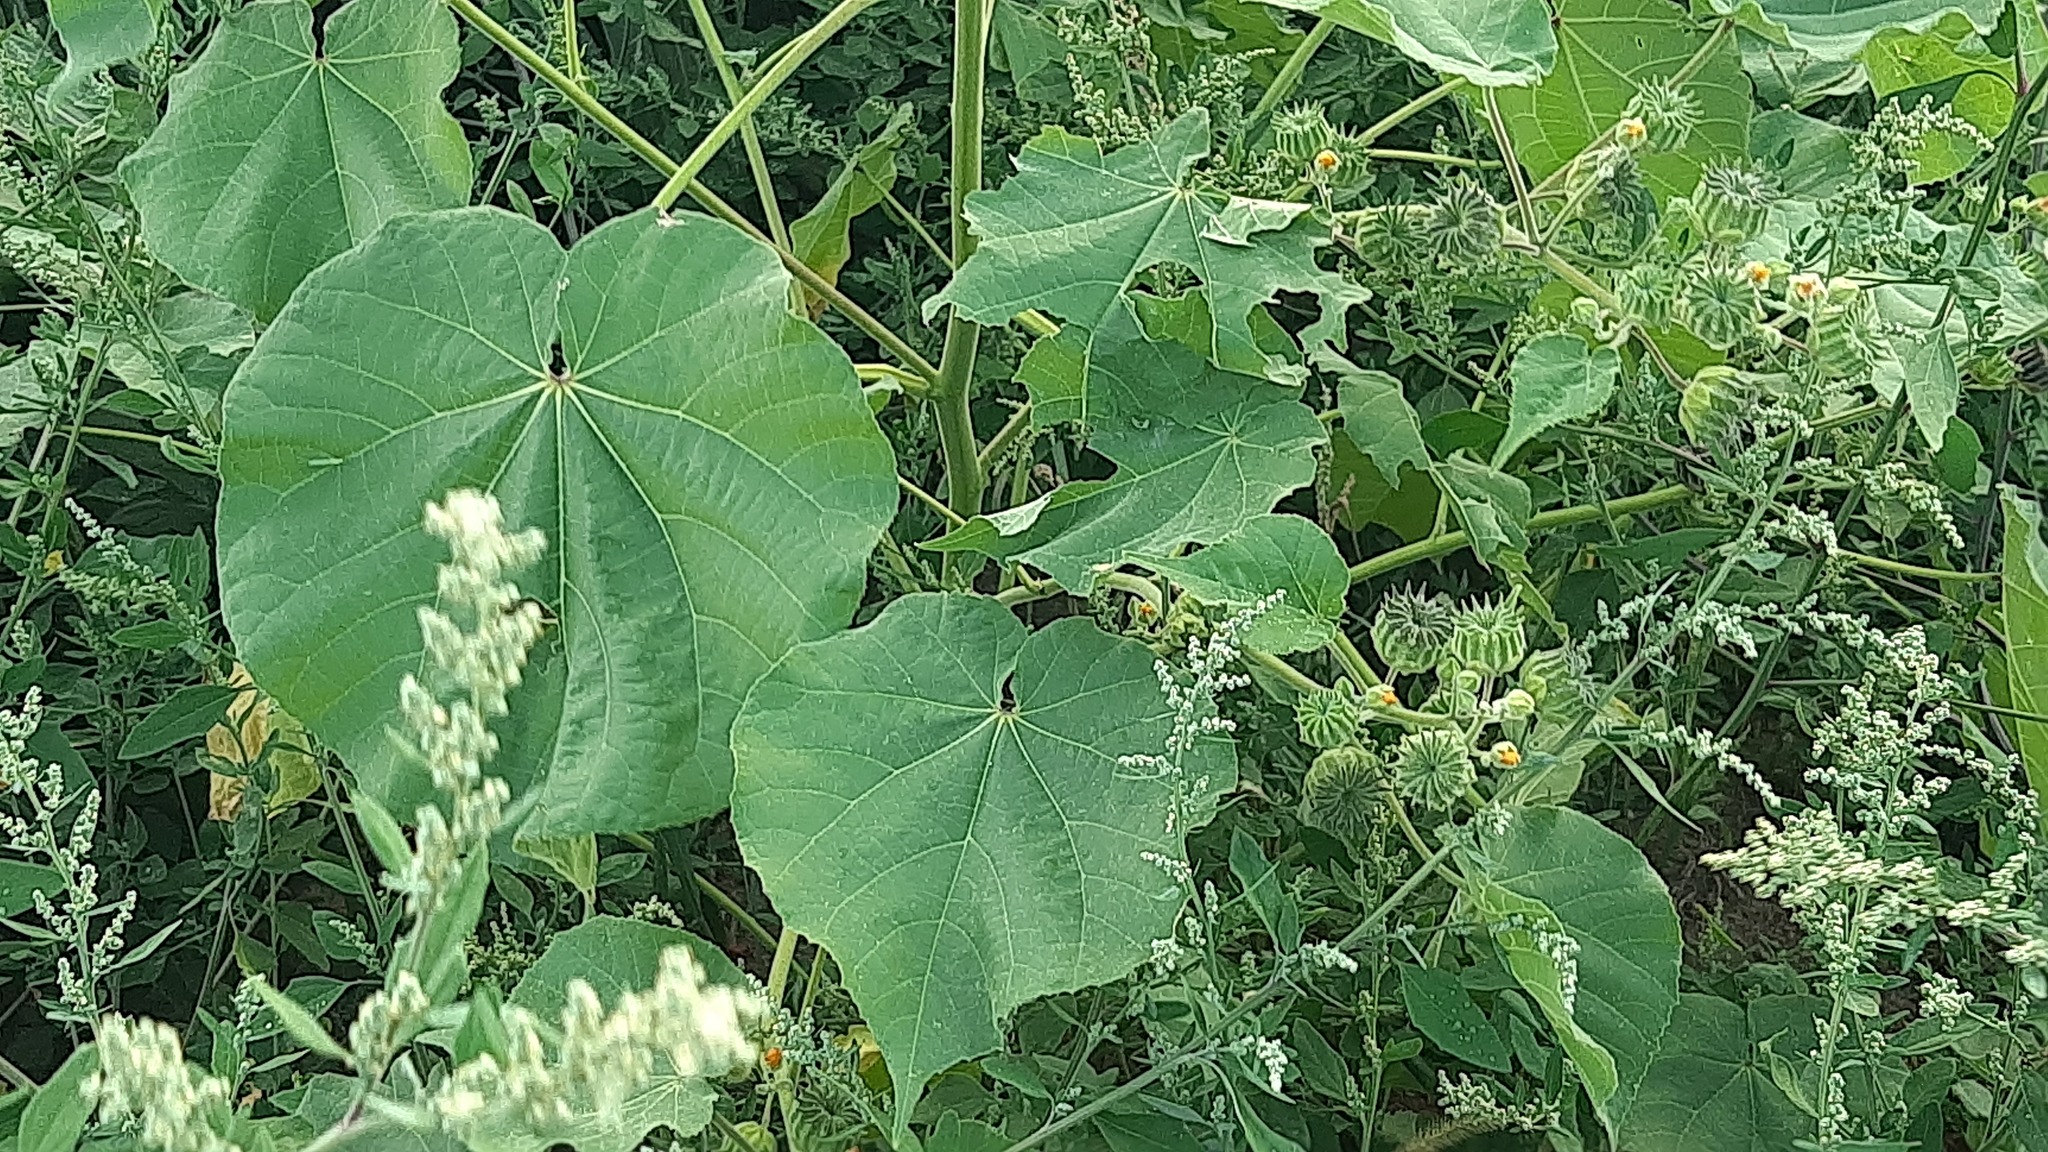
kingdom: Plantae
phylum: Tracheophyta
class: Magnoliopsida
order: Malvales
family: Malvaceae
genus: Abutilon
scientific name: Abutilon theophrasti
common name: Velvetleaf
